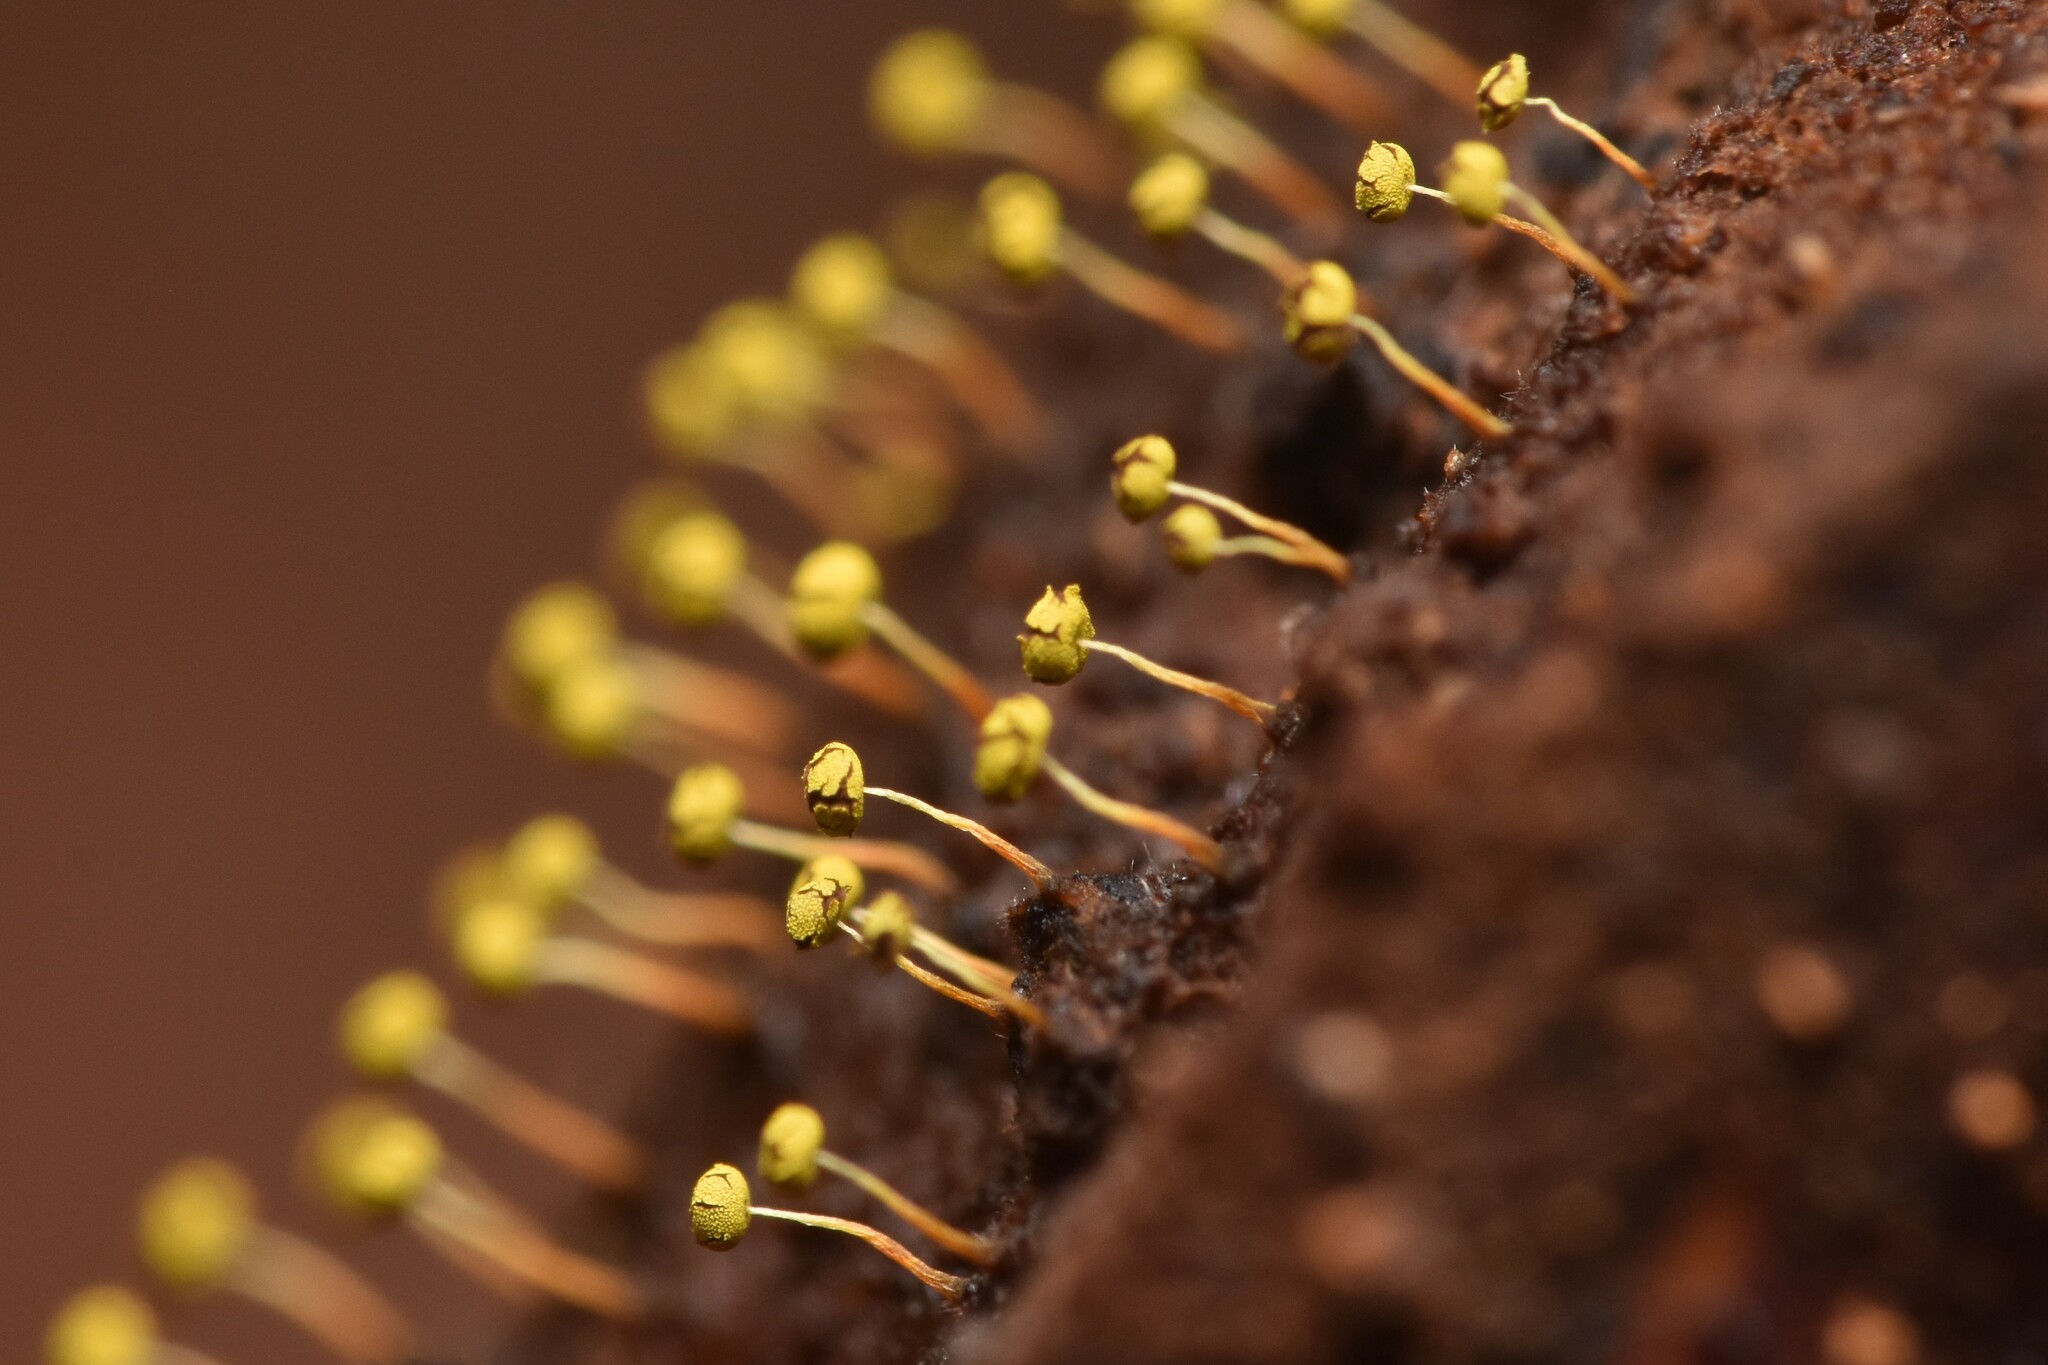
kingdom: Protozoa
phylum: Mycetozoa
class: Myxomycetes
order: Physarales
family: Physaraceae
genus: Physarum
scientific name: Physarum viride
